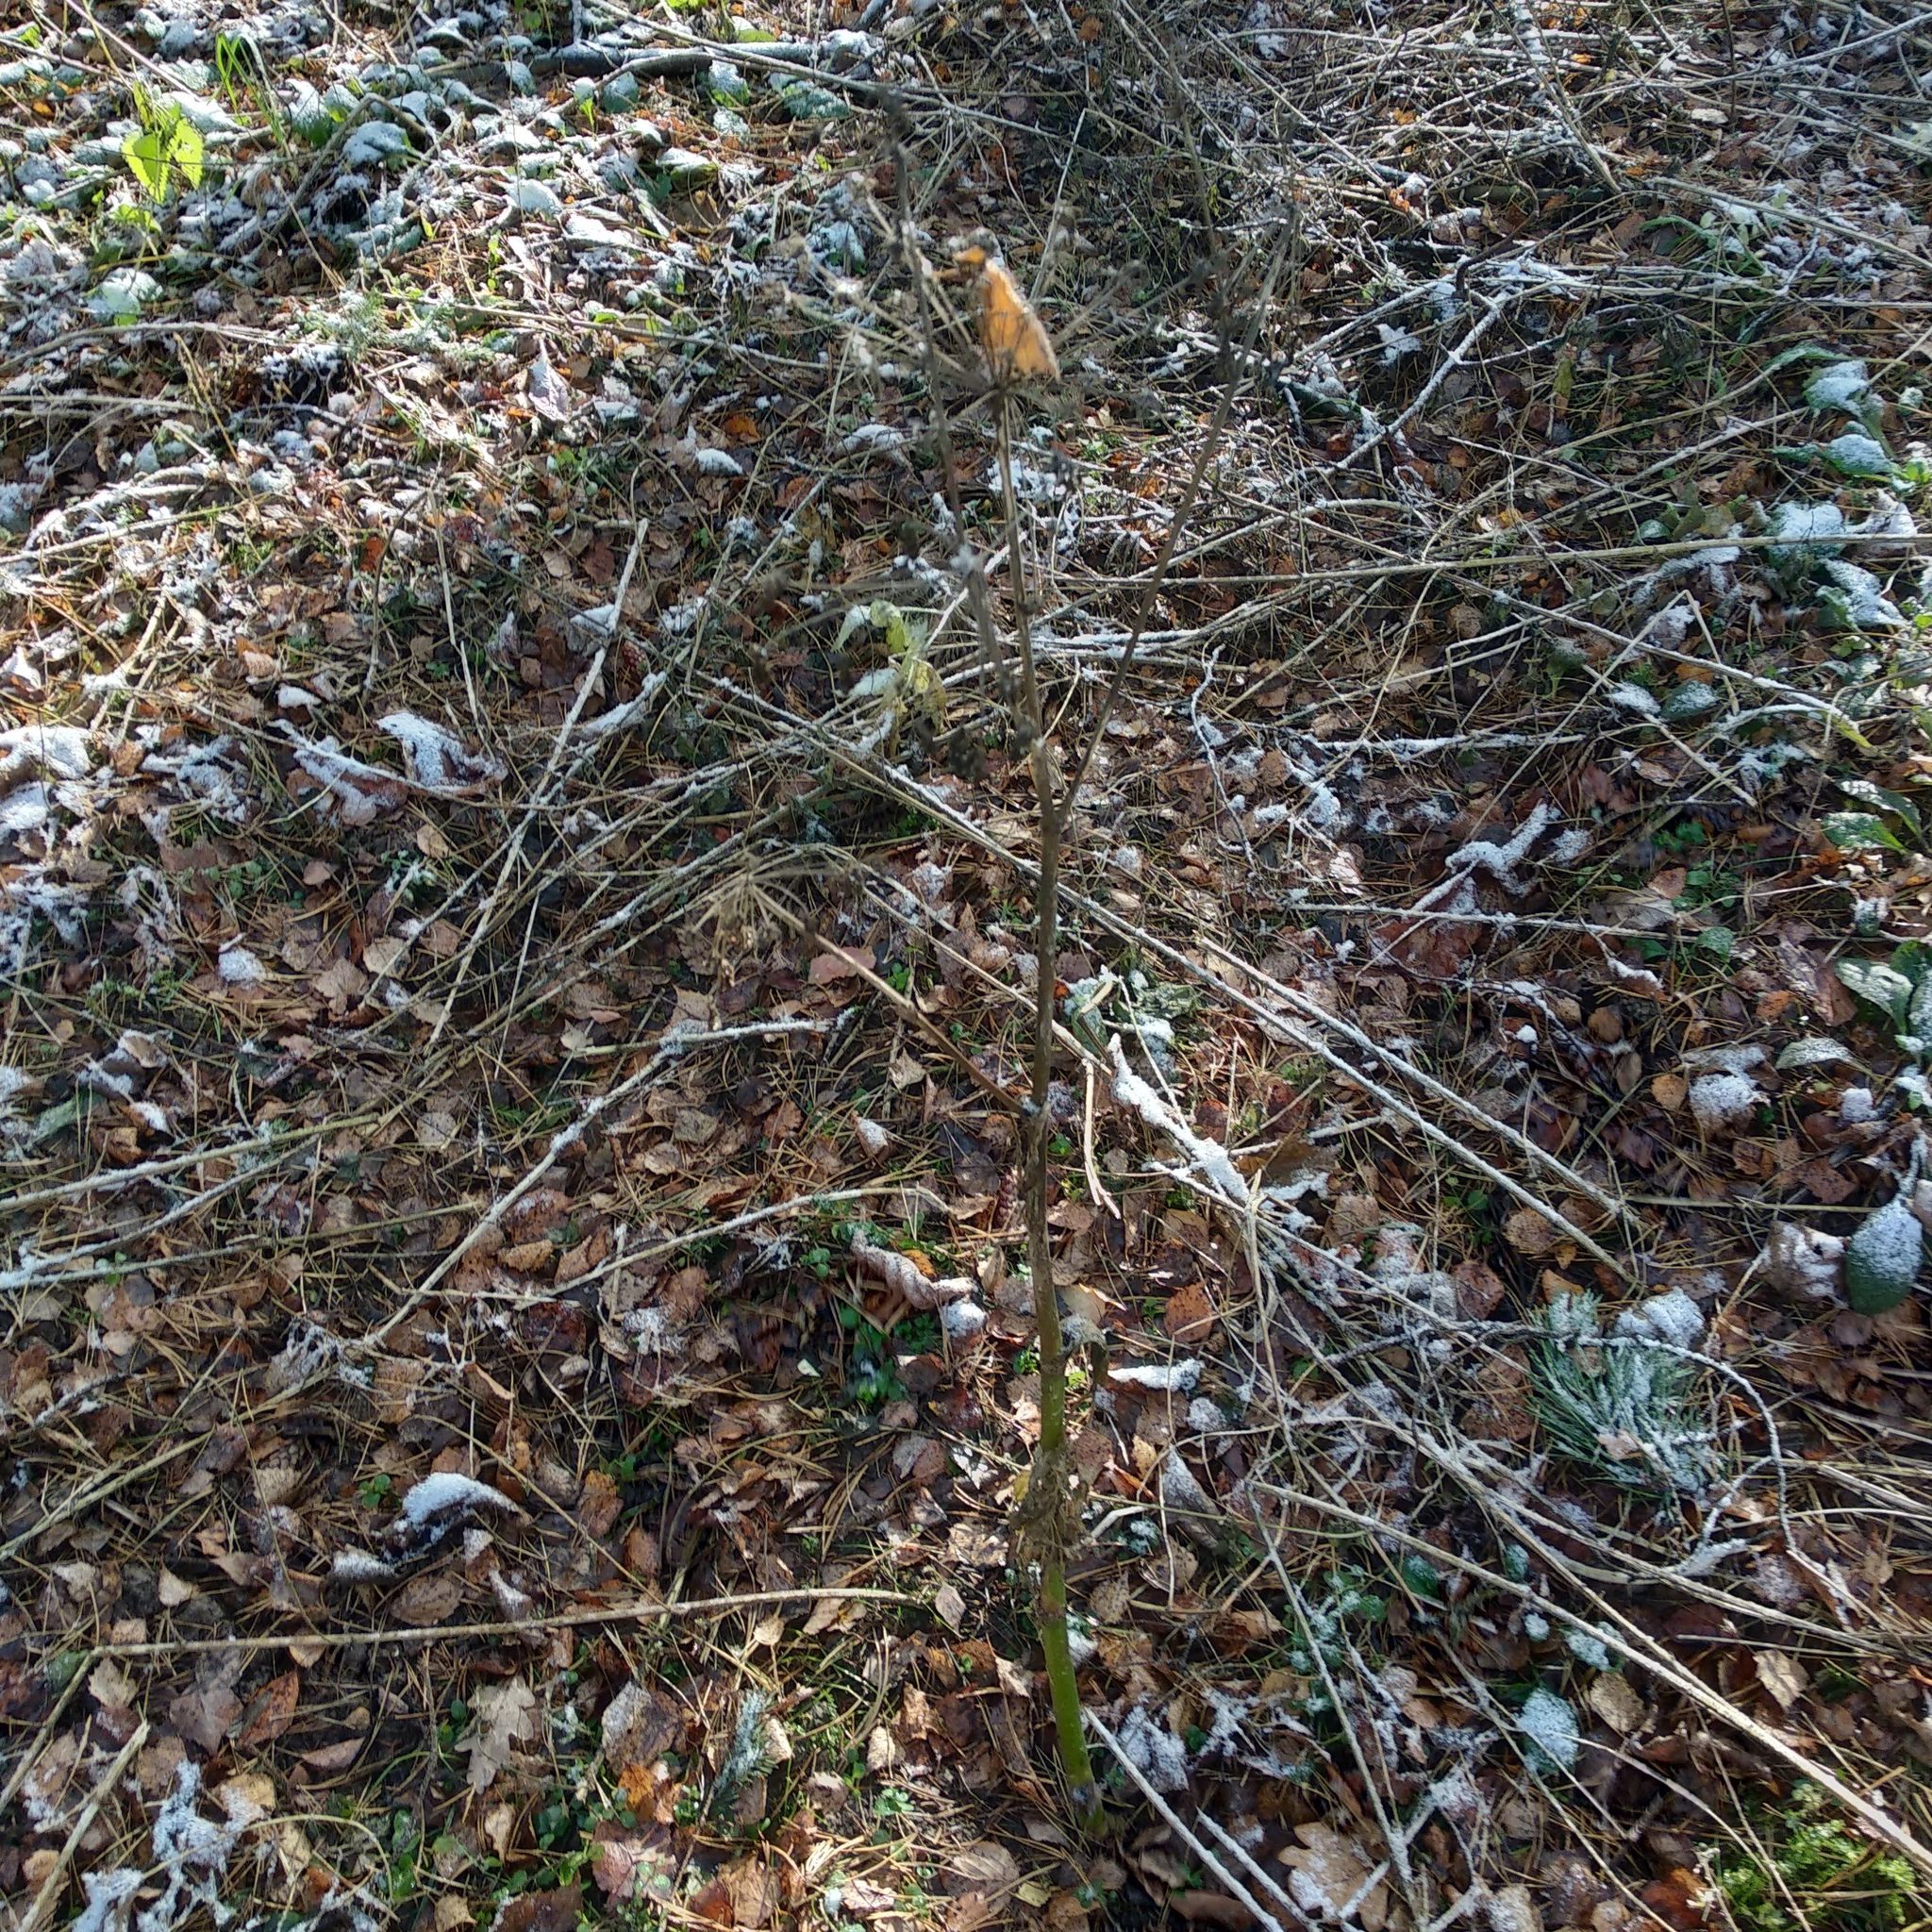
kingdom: Plantae
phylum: Tracheophyta
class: Magnoliopsida
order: Apiales
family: Apiaceae
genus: Angelica
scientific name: Angelica sylvestris
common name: Wild angelica
